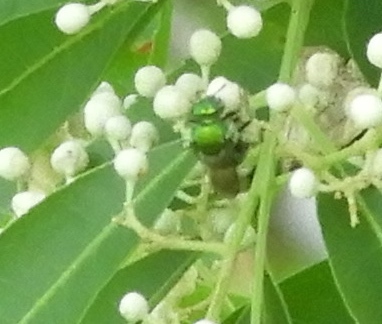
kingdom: Animalia
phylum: Arthropoda
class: Insecta
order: Hymenoptera
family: Halictidae
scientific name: Halictidae
